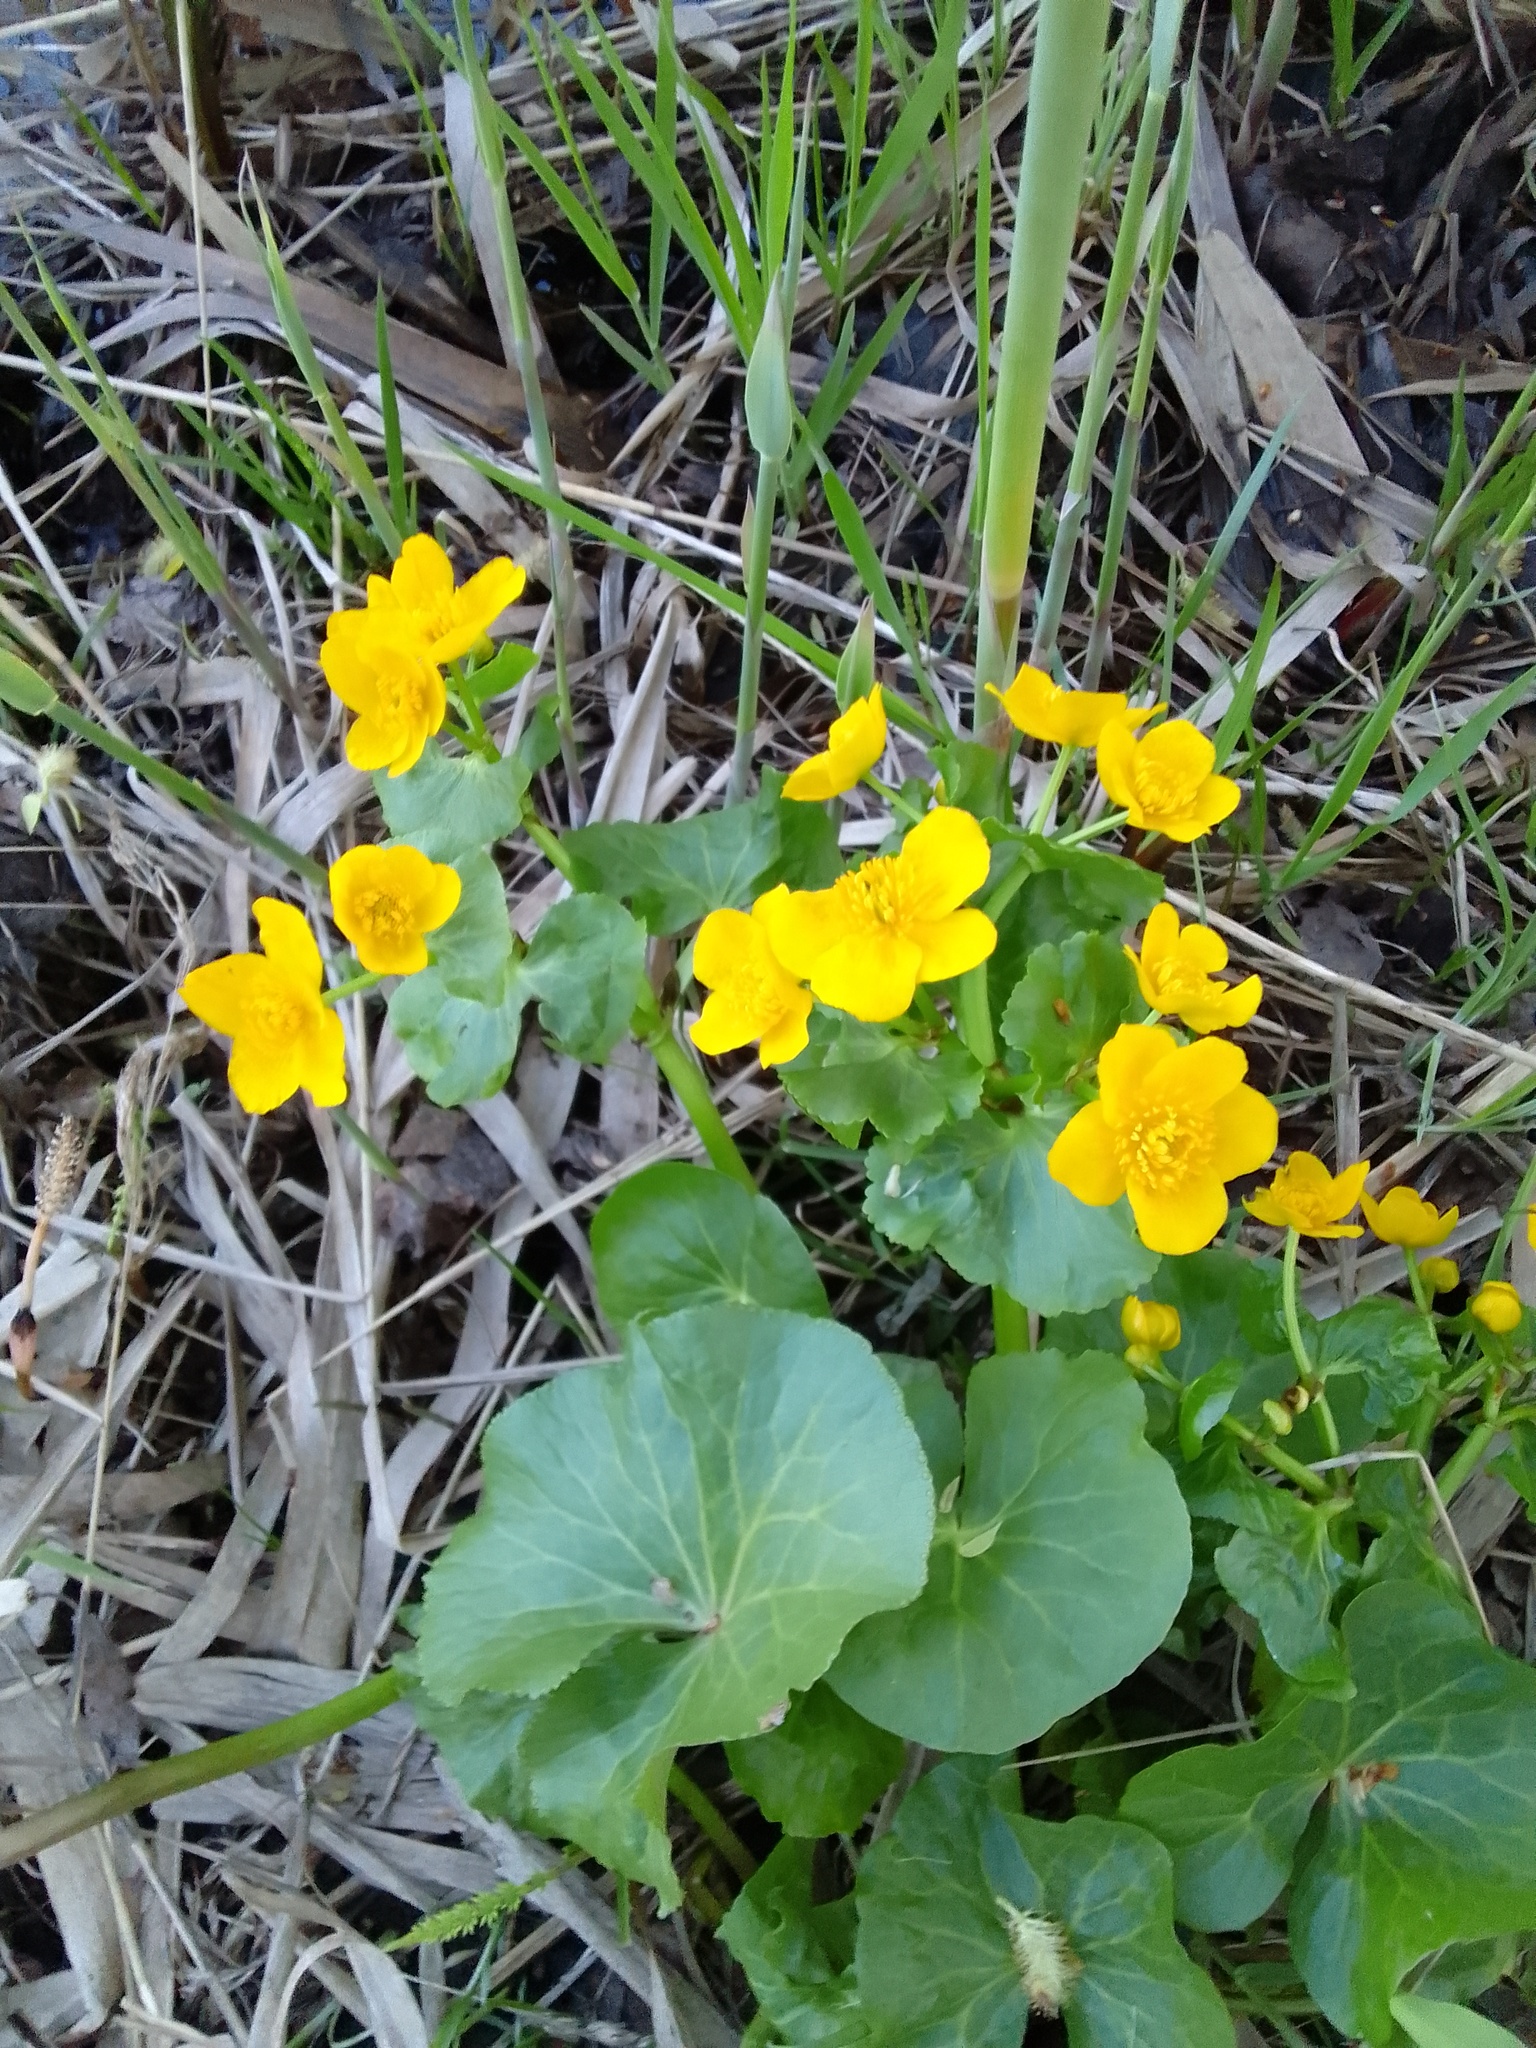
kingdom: Plantae
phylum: Tracheophyta
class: Magnoliopsida
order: Ranunculales
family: Ranunculaceae
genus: Caltha
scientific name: Caltha palustris
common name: Marsh marigold
